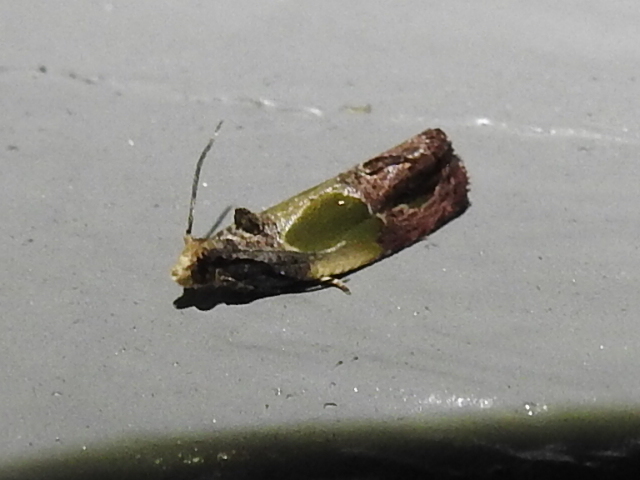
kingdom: Animalia
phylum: Arthropoda
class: Insecta
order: Lepidoptera
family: Tortricidae
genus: Eumarozia
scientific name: Eumarozia malachitana
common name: Sculptured moth
